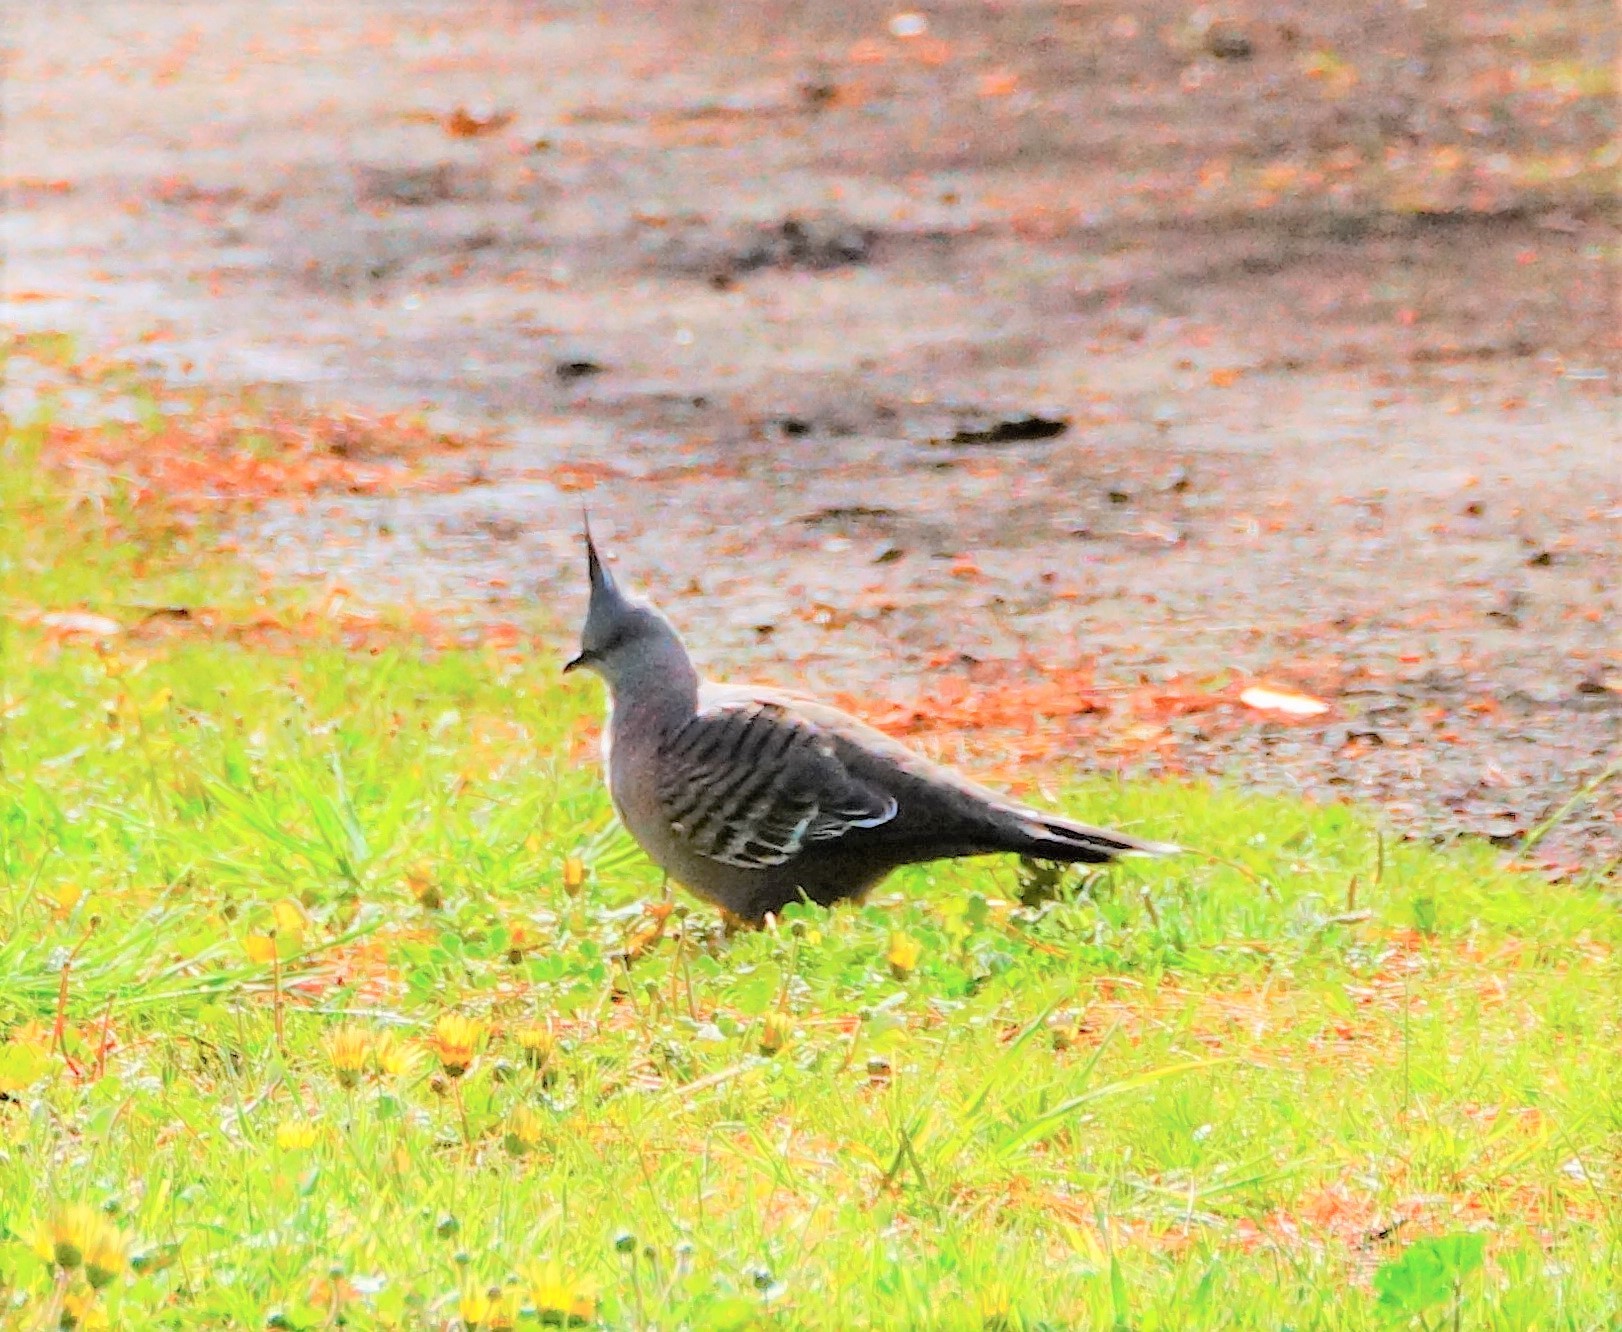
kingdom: Animalia
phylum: Chordata
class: Aves
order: Columbiformes
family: Columbidae
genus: Ocyphaps
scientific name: Ocyphaps lophotes
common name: Crested pigeon
